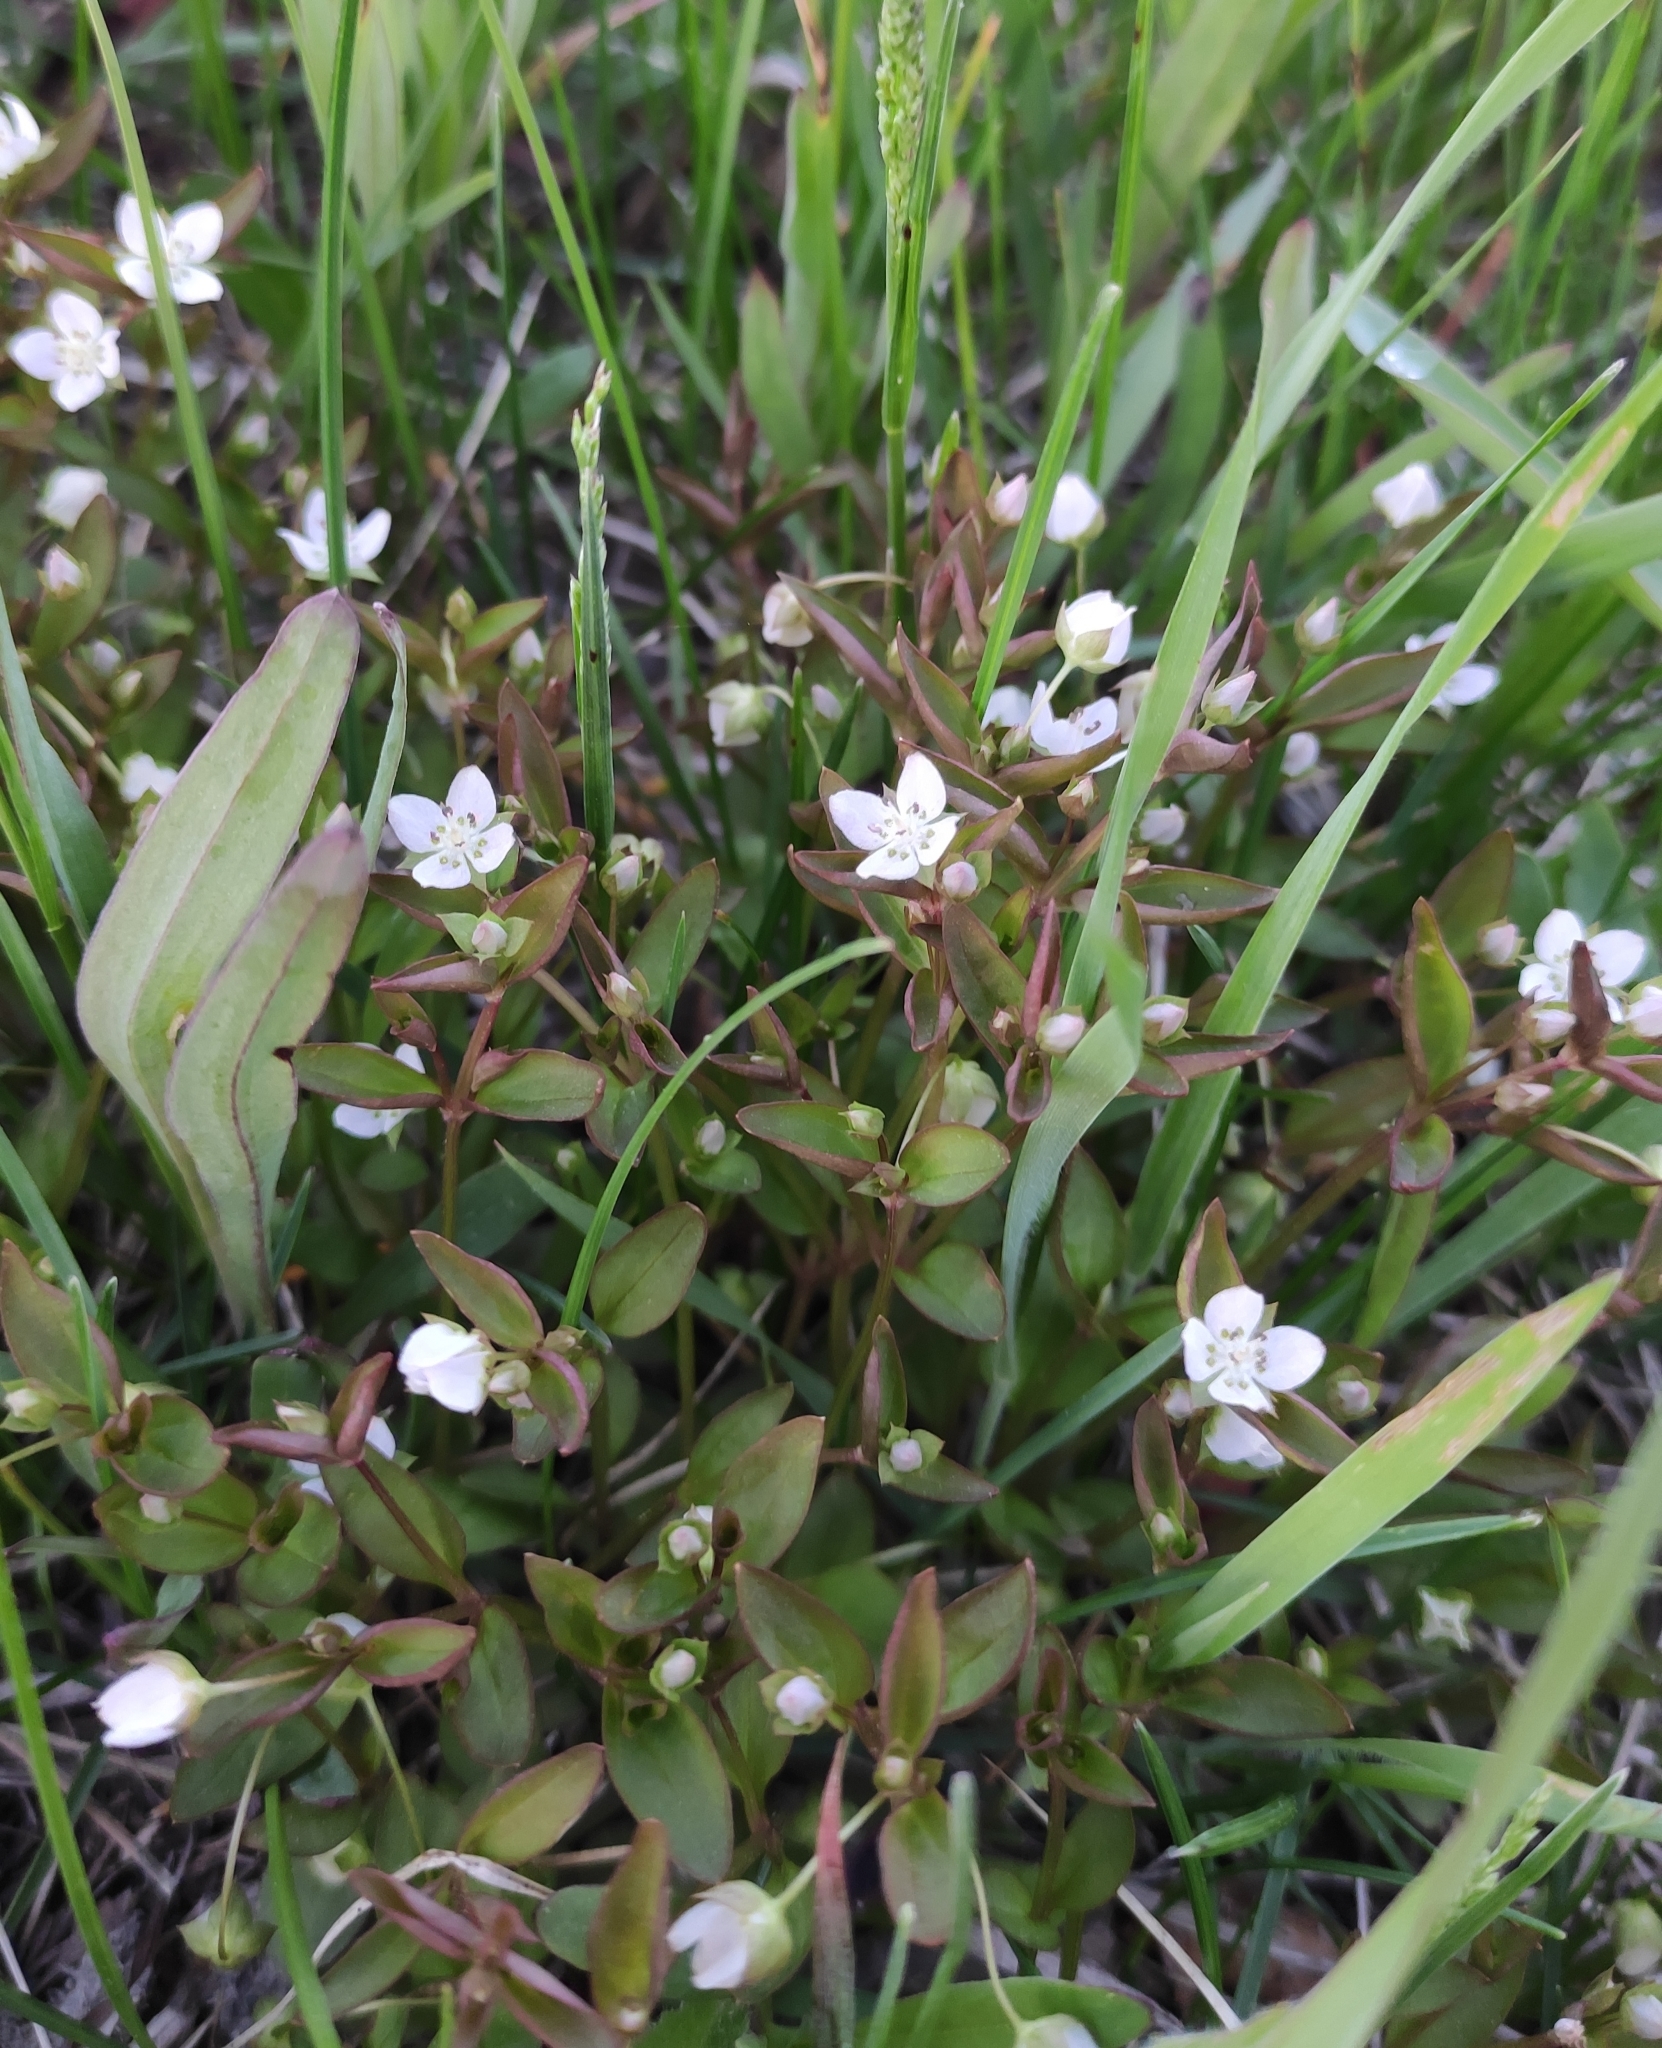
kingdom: Plantae
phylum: Tracheophyta
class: Magnoliopsida
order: Gentianales
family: Gentianaceae
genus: Swertia
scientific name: Swertia dichotoma
